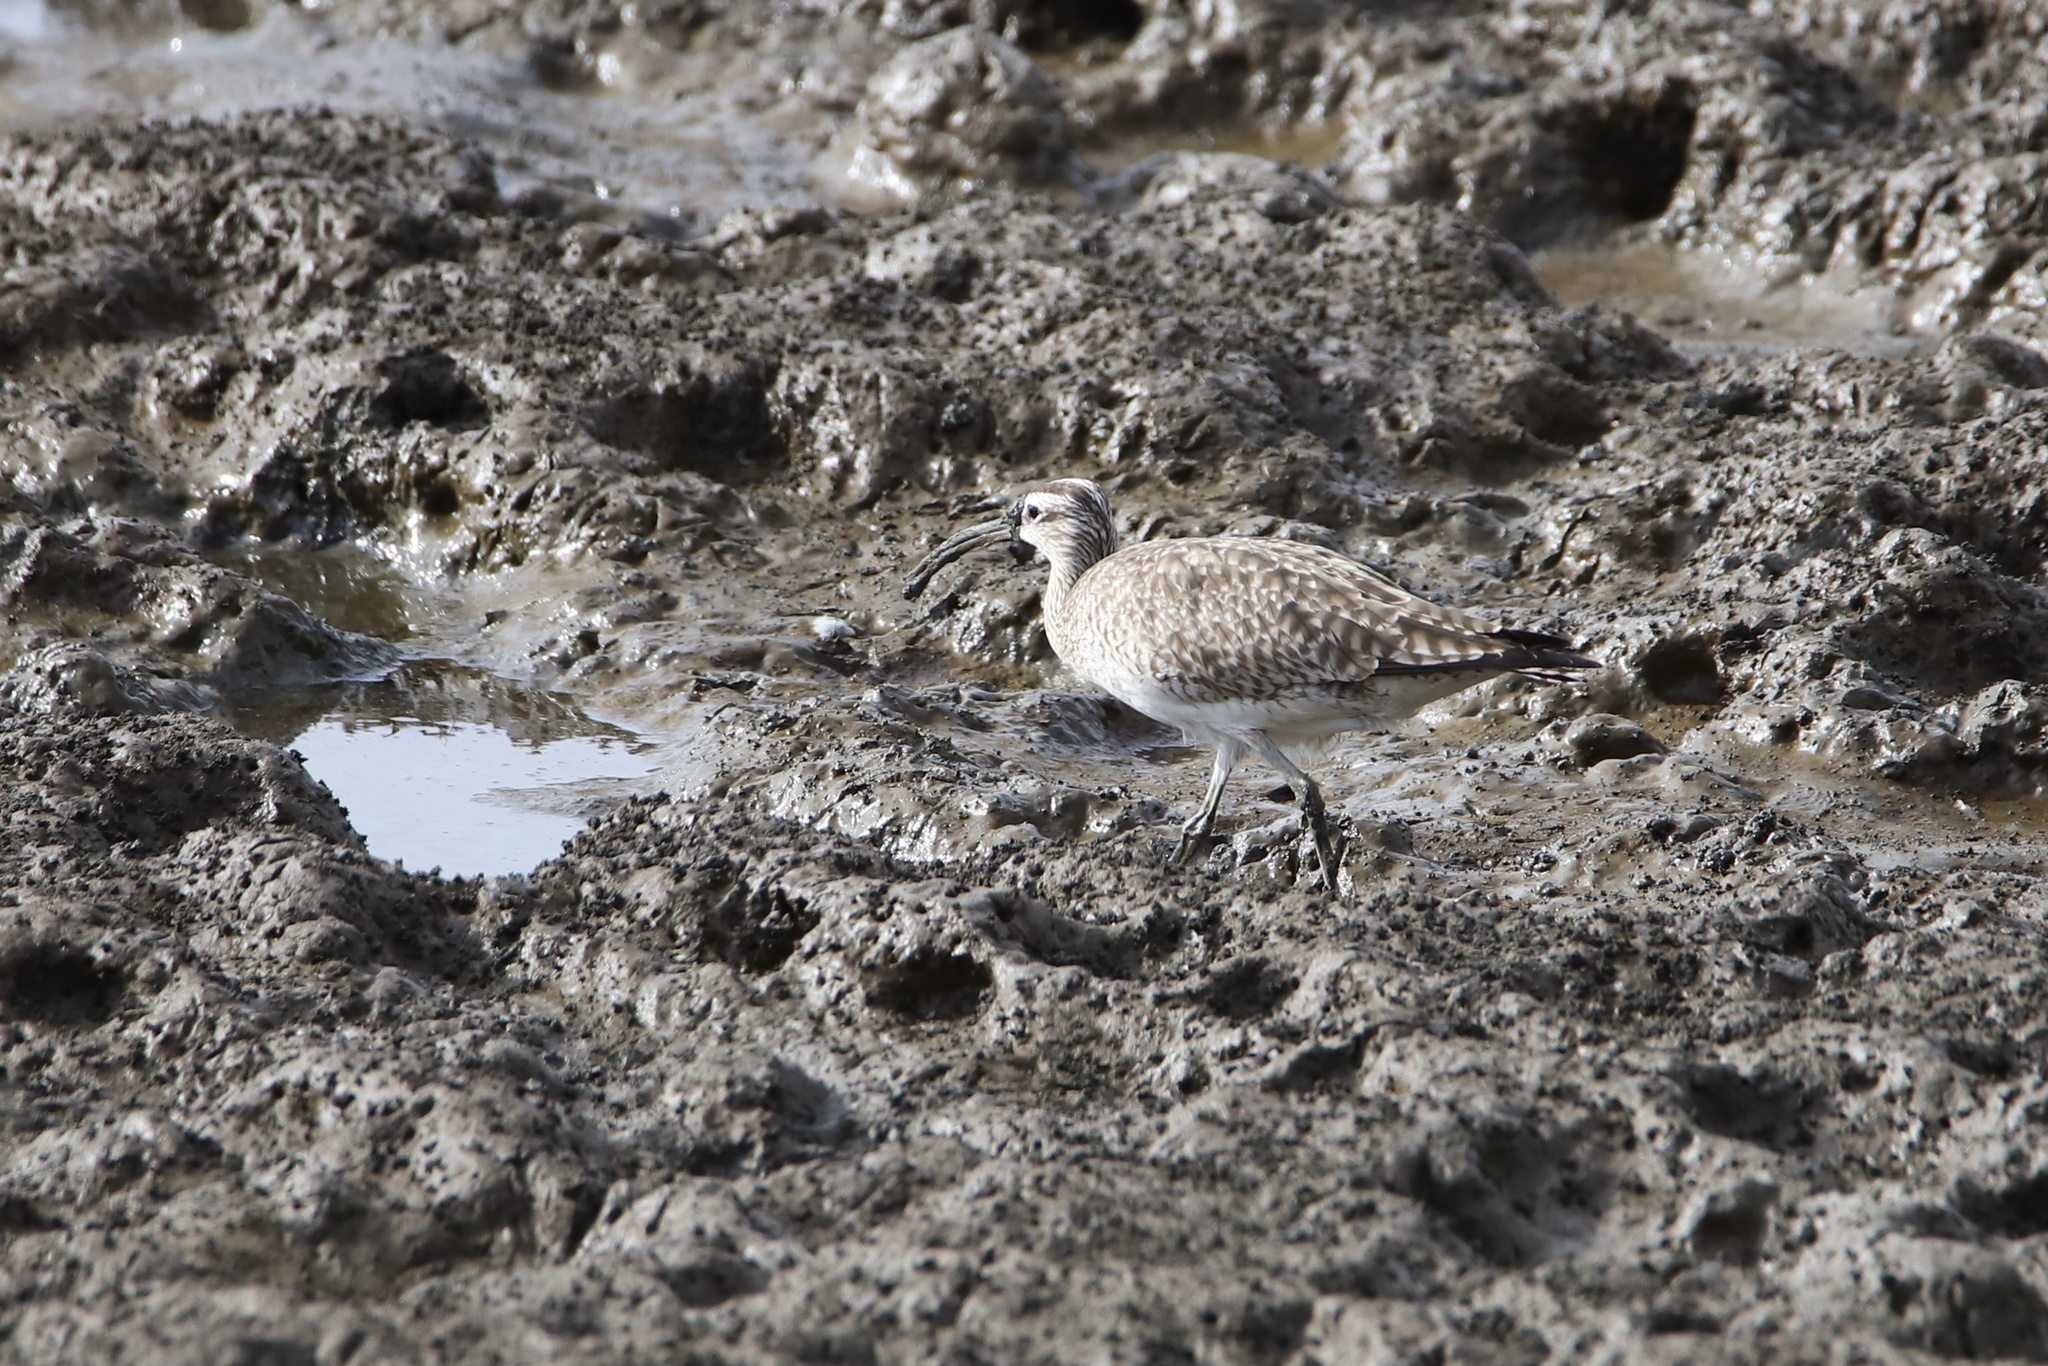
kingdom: Animalia
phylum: Chordata
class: Aves
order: Charadriiformes
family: Scolopacidae
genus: Numenius
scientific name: Numenius phaeopus
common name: Whimbrel
